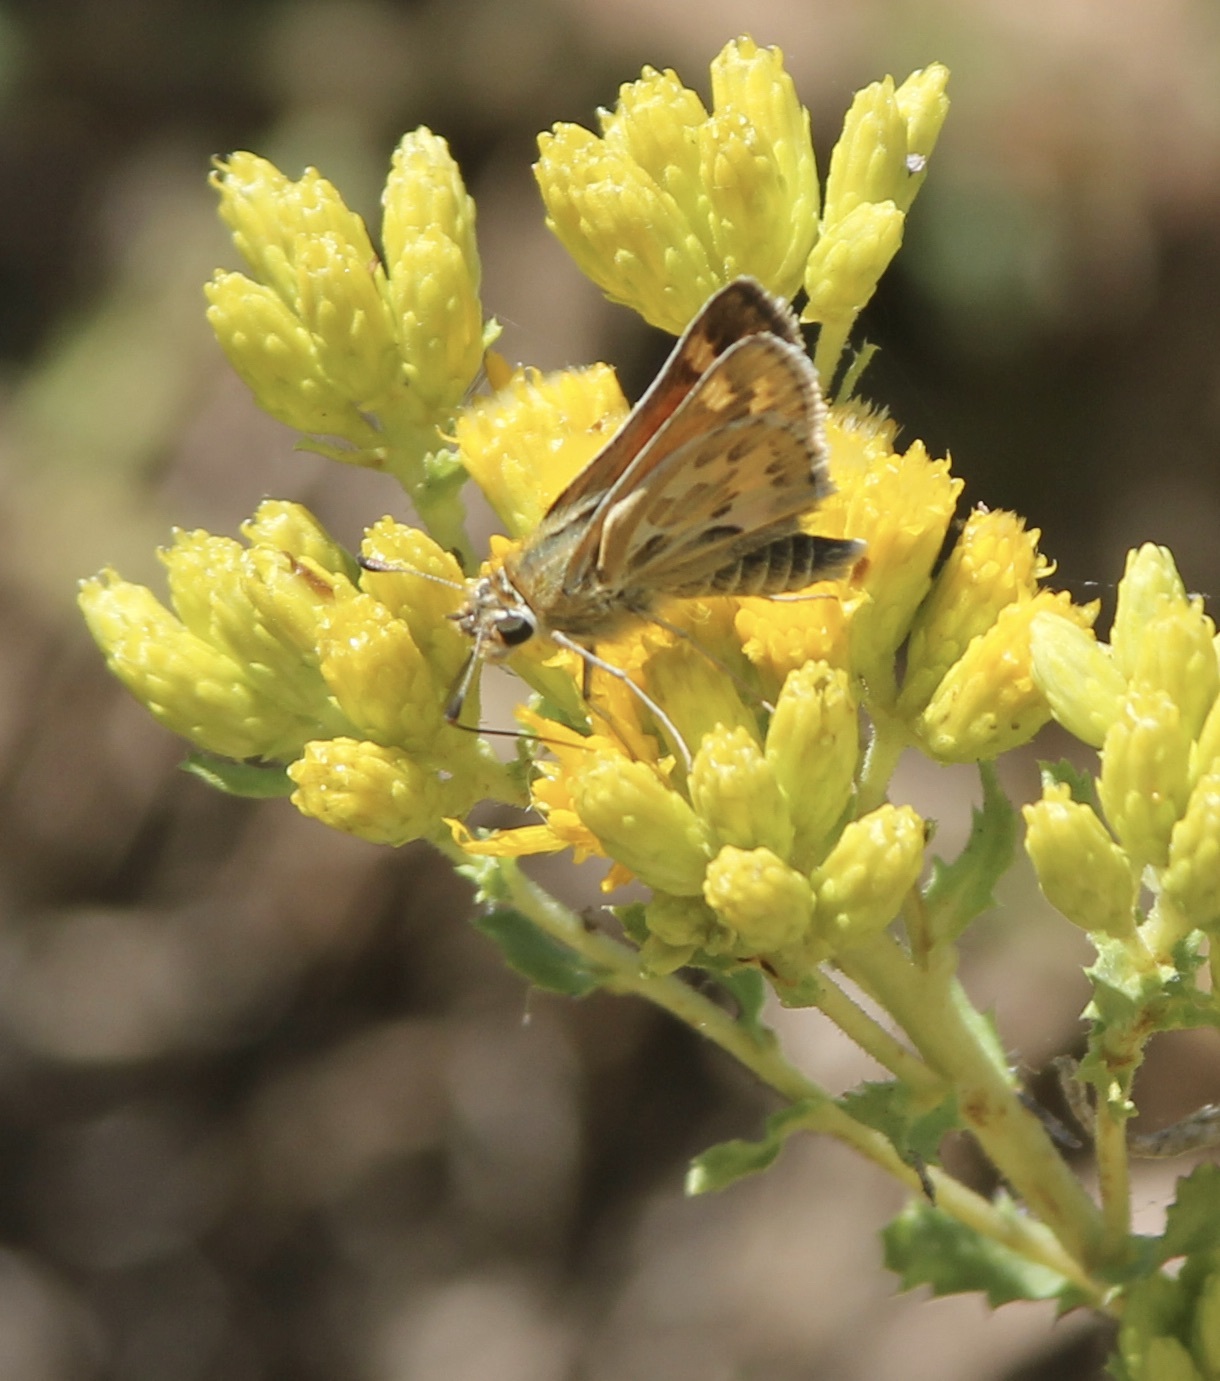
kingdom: Animalia
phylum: Arthropoda
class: Insecta
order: Lepidoptera
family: Hesperiidae
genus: Polites
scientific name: Polites sabuleti
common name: Sandhill skipper
